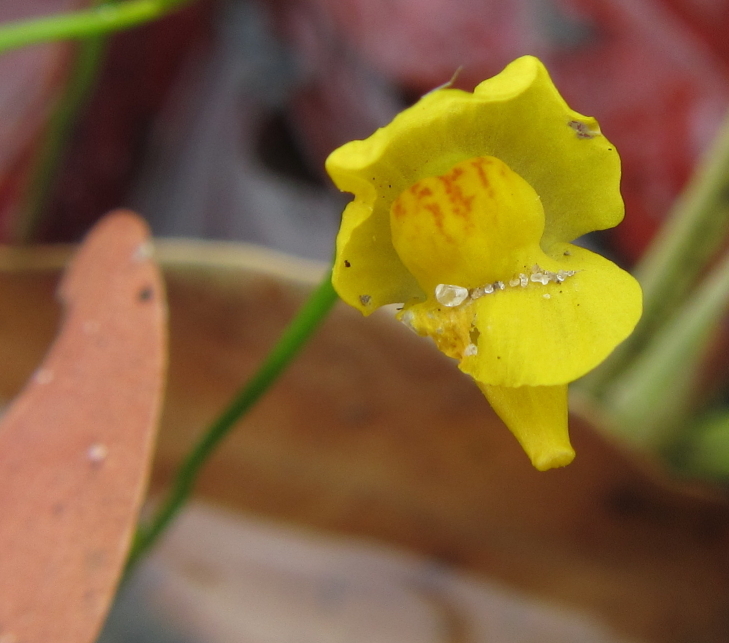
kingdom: Plantae
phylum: Tracheophyta
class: Magnoliopsida
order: Lamiales
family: Lentibulariaceae
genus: Utricularia
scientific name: Utricularia gibba
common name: Humped bladderwort
